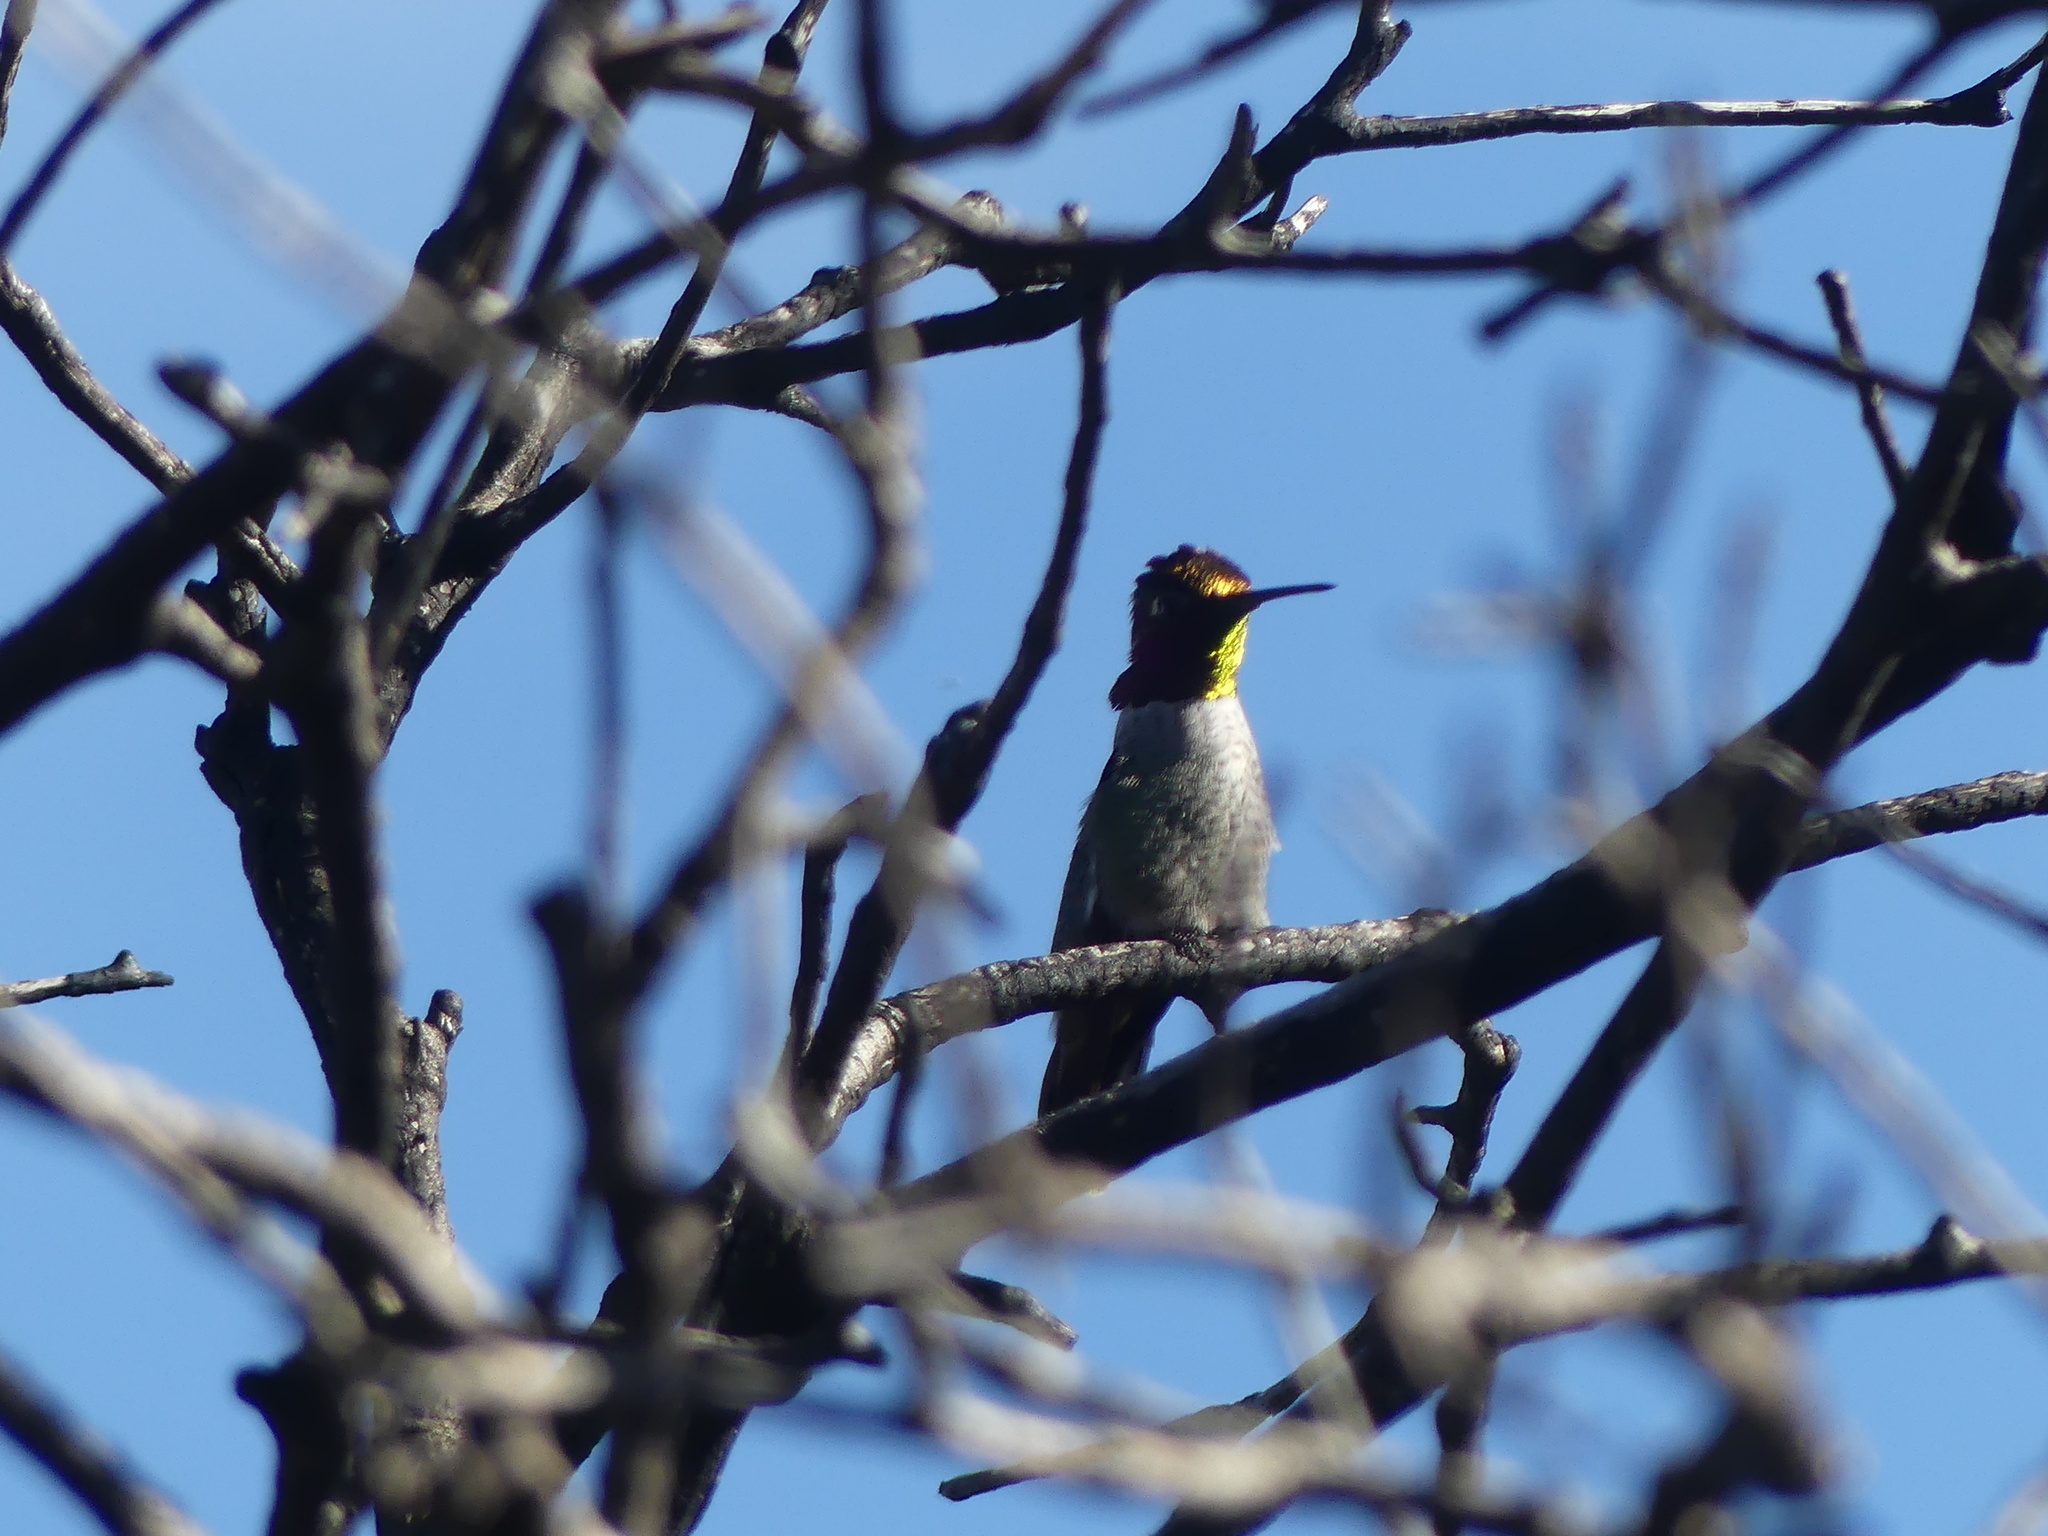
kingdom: Animalia
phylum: Chordata
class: Aves
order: Apodiformes
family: Trochilidae
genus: Calypte
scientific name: Calypte anna
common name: Anna's hummingbird
